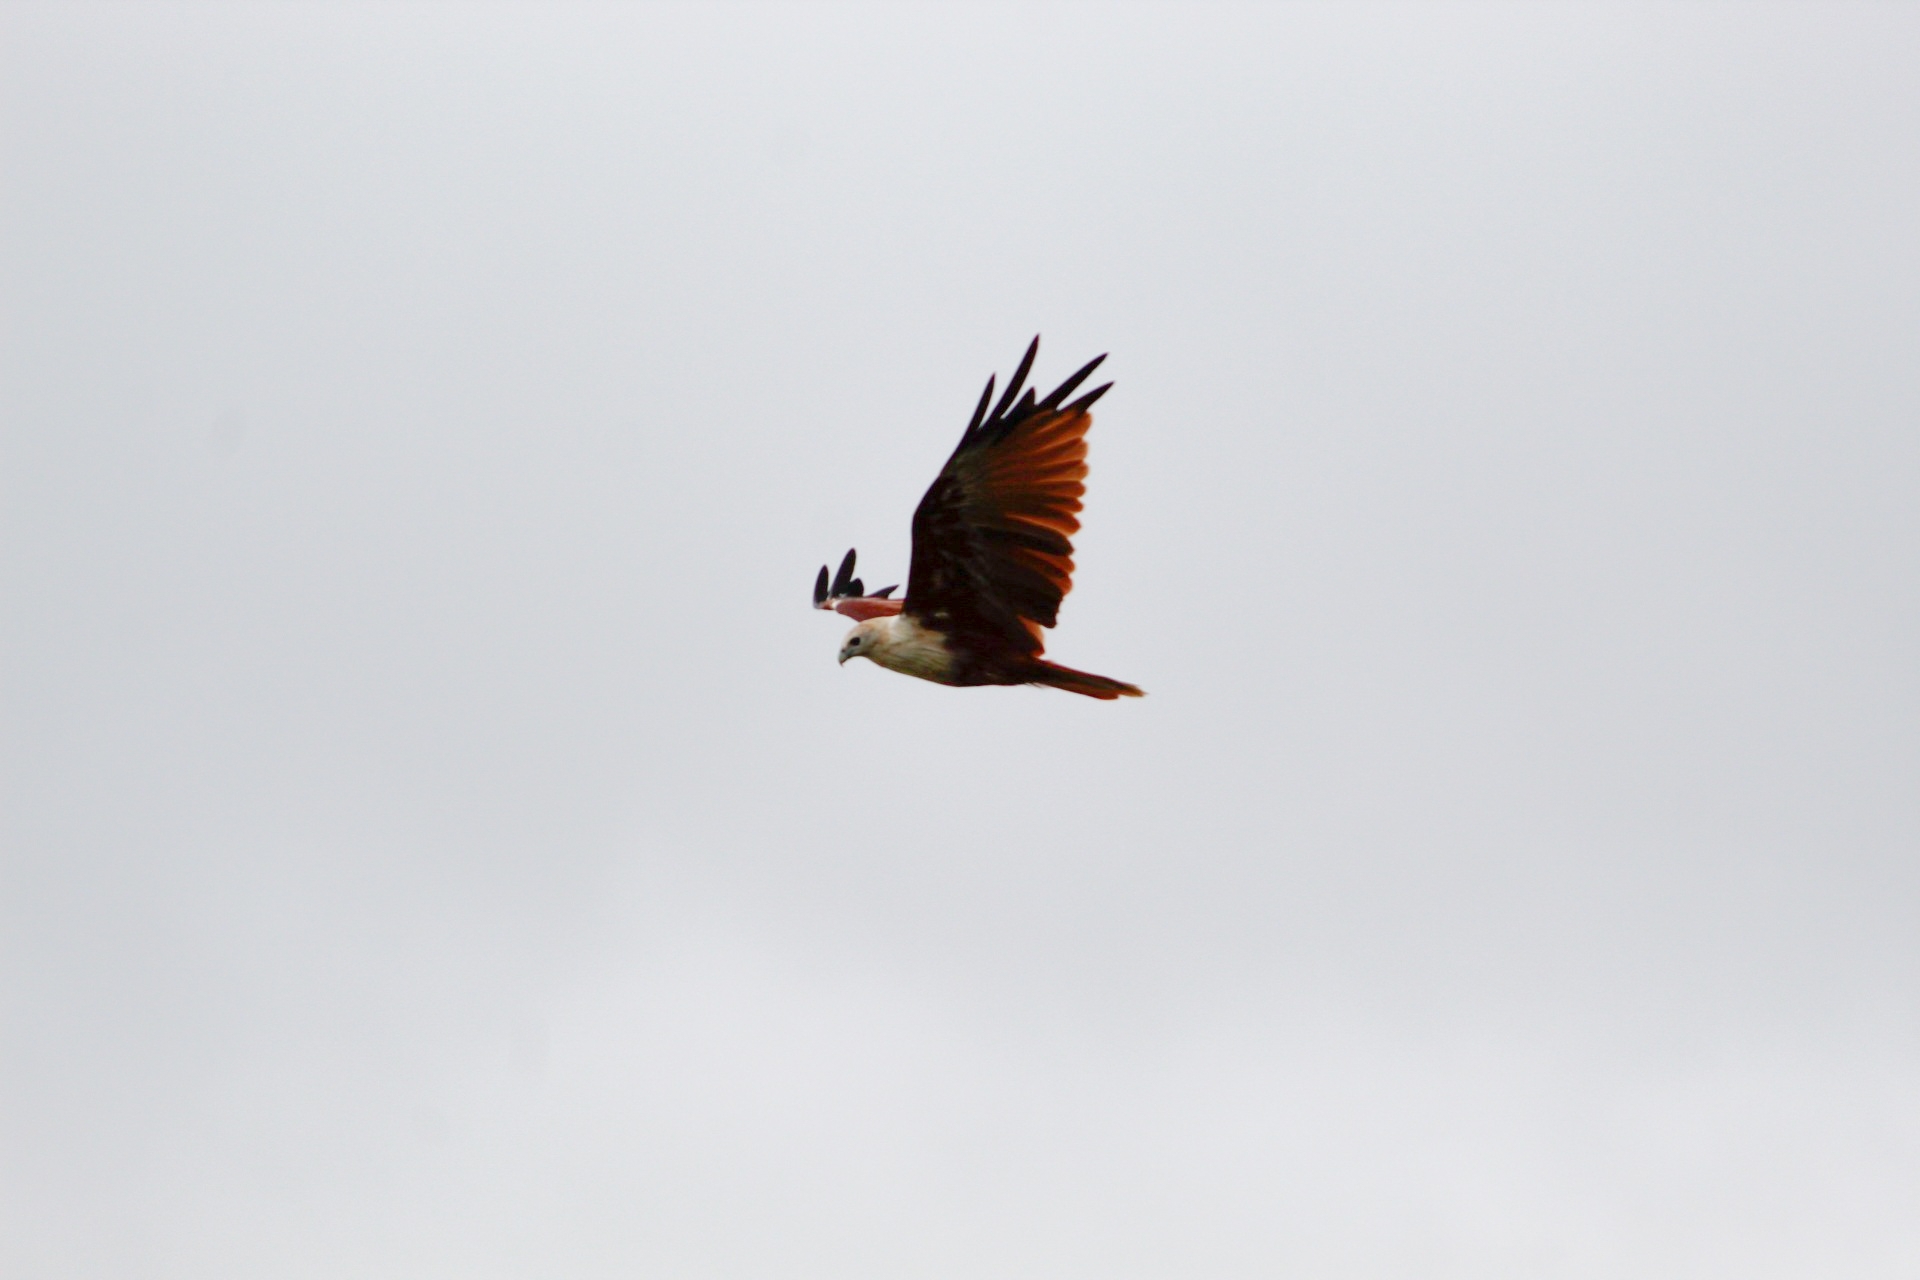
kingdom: Animalia
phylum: Chordata
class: Aves
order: Accipitriformes
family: Accipitridae
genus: Haliastur
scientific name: Haliastur indus
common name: Brahminy kite
